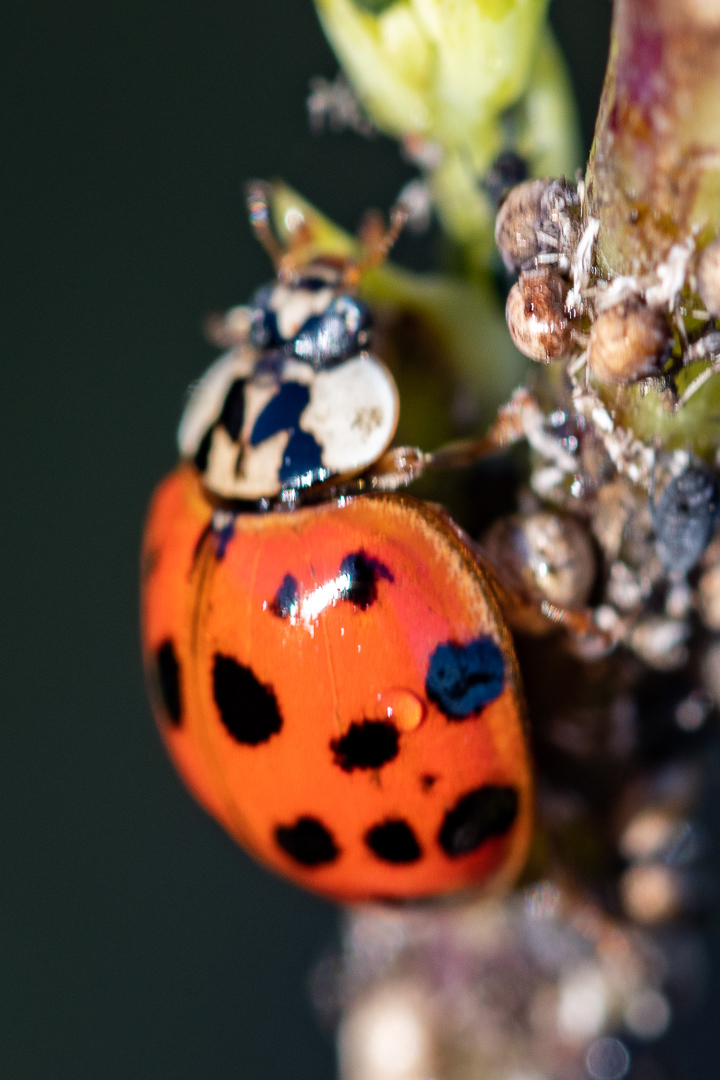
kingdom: Animalia
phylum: Arthropoda
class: Insecta
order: Coleoptera
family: Coccinellidae
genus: Harmonia
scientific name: Harmonia axyridis
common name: Harlequin ladybird
